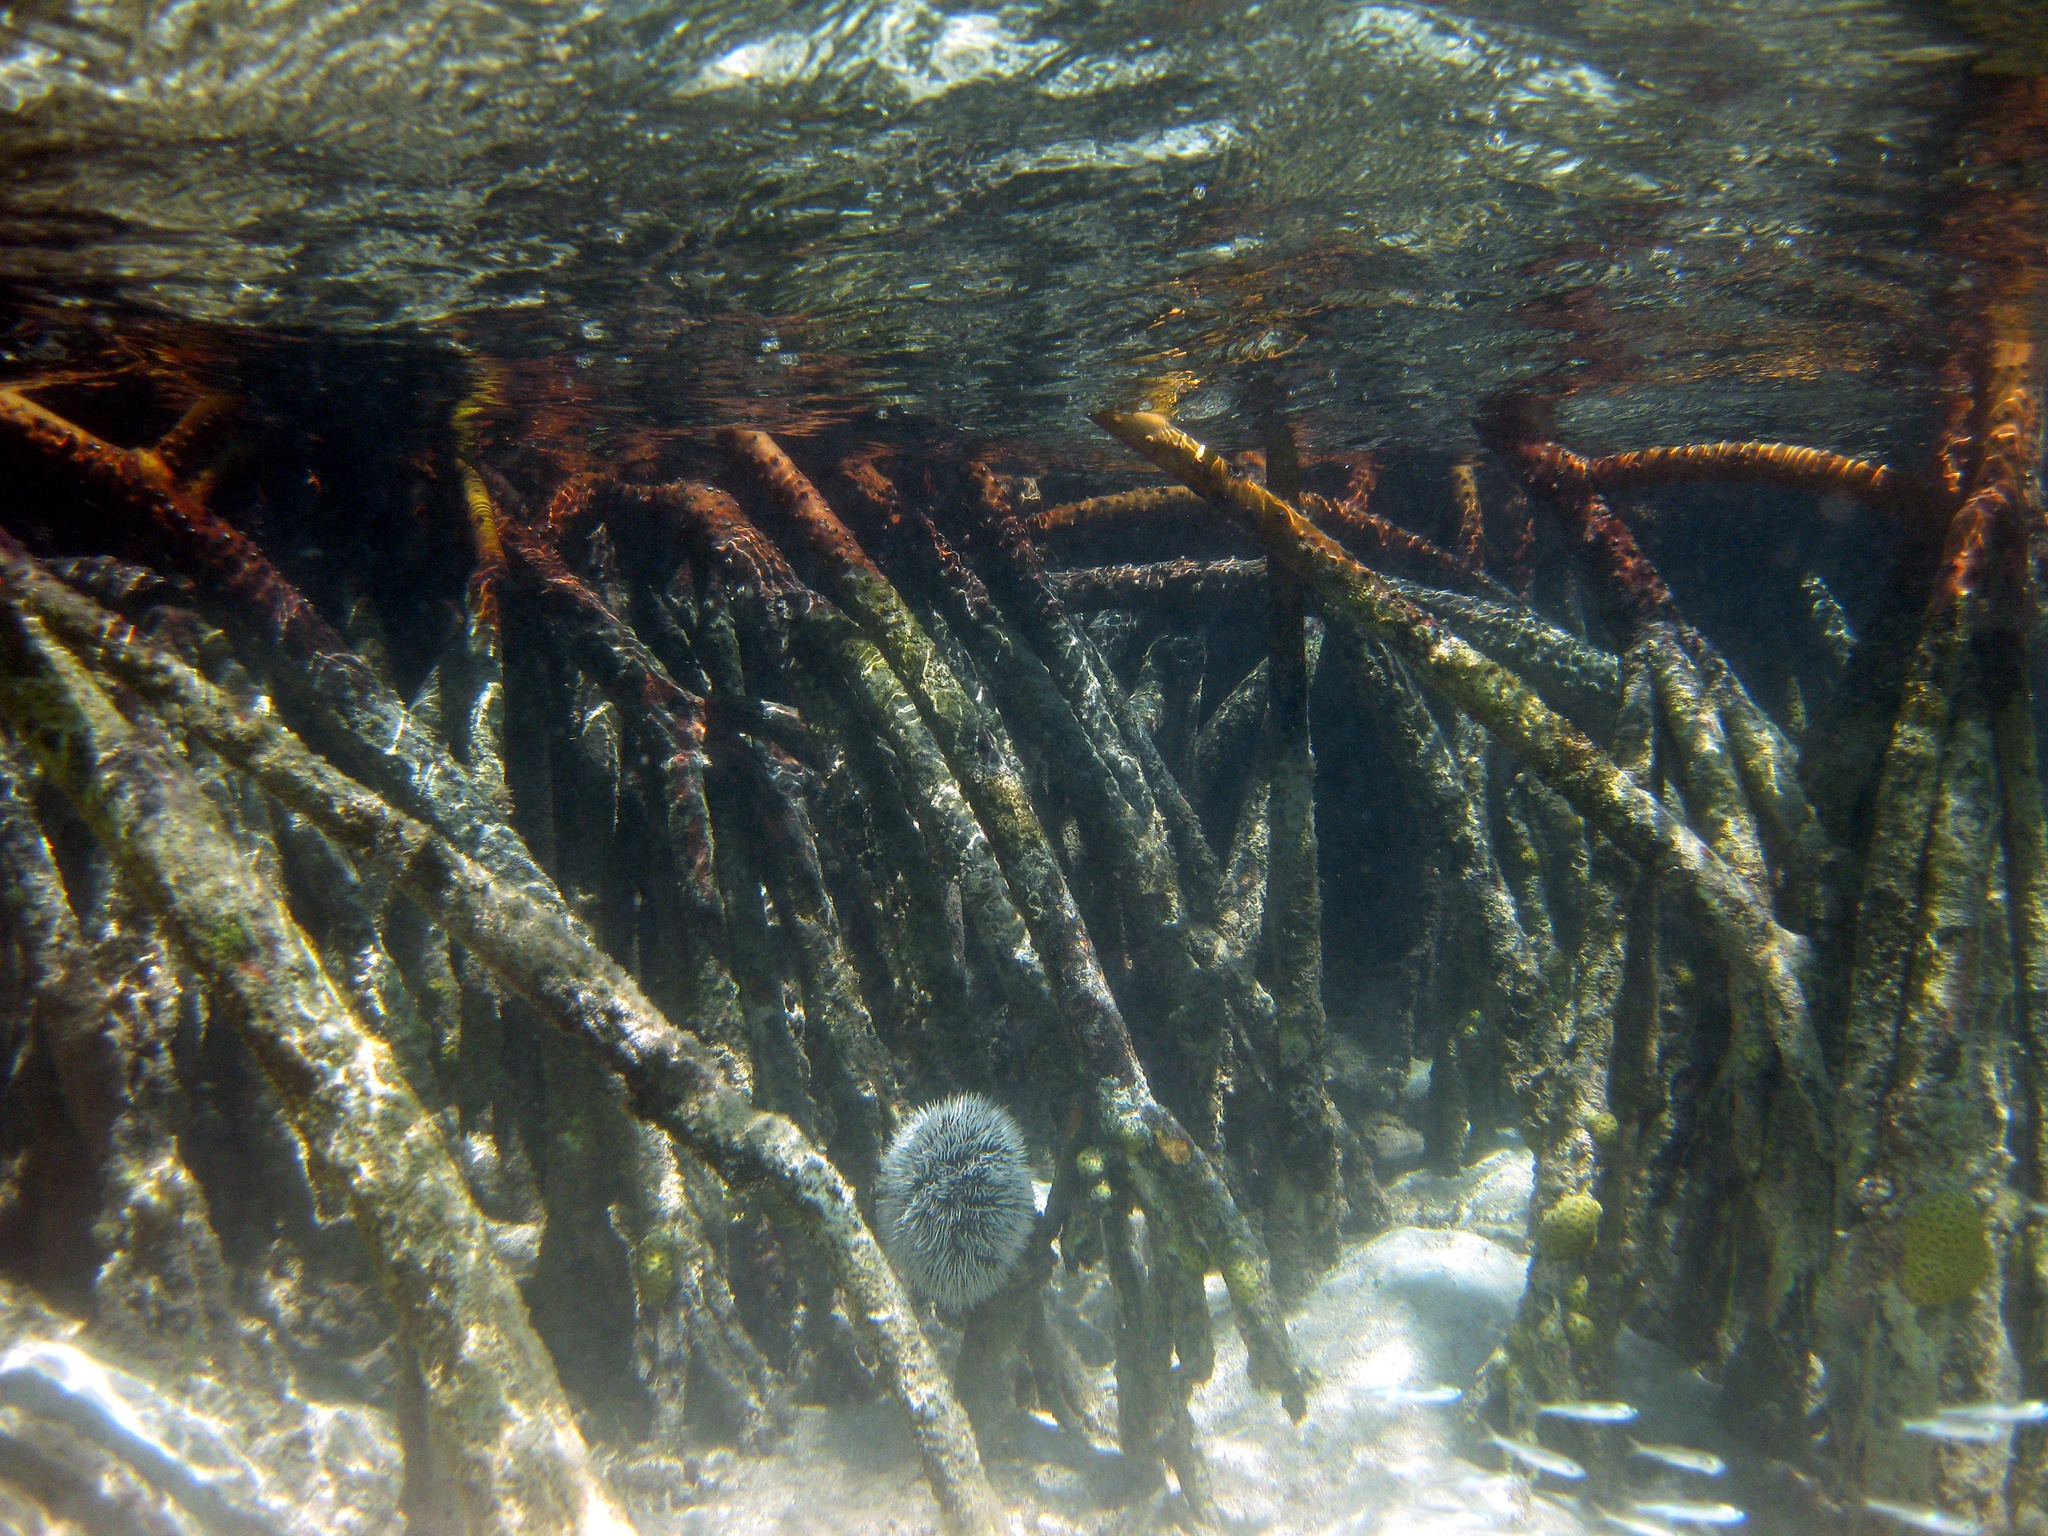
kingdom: Plantae
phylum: Tracheophyta
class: Magnoliopsida
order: Malpighiales
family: Rhizophoraceae
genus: Rhizophora
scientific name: Rhizophora mangle
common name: Red mangrove
